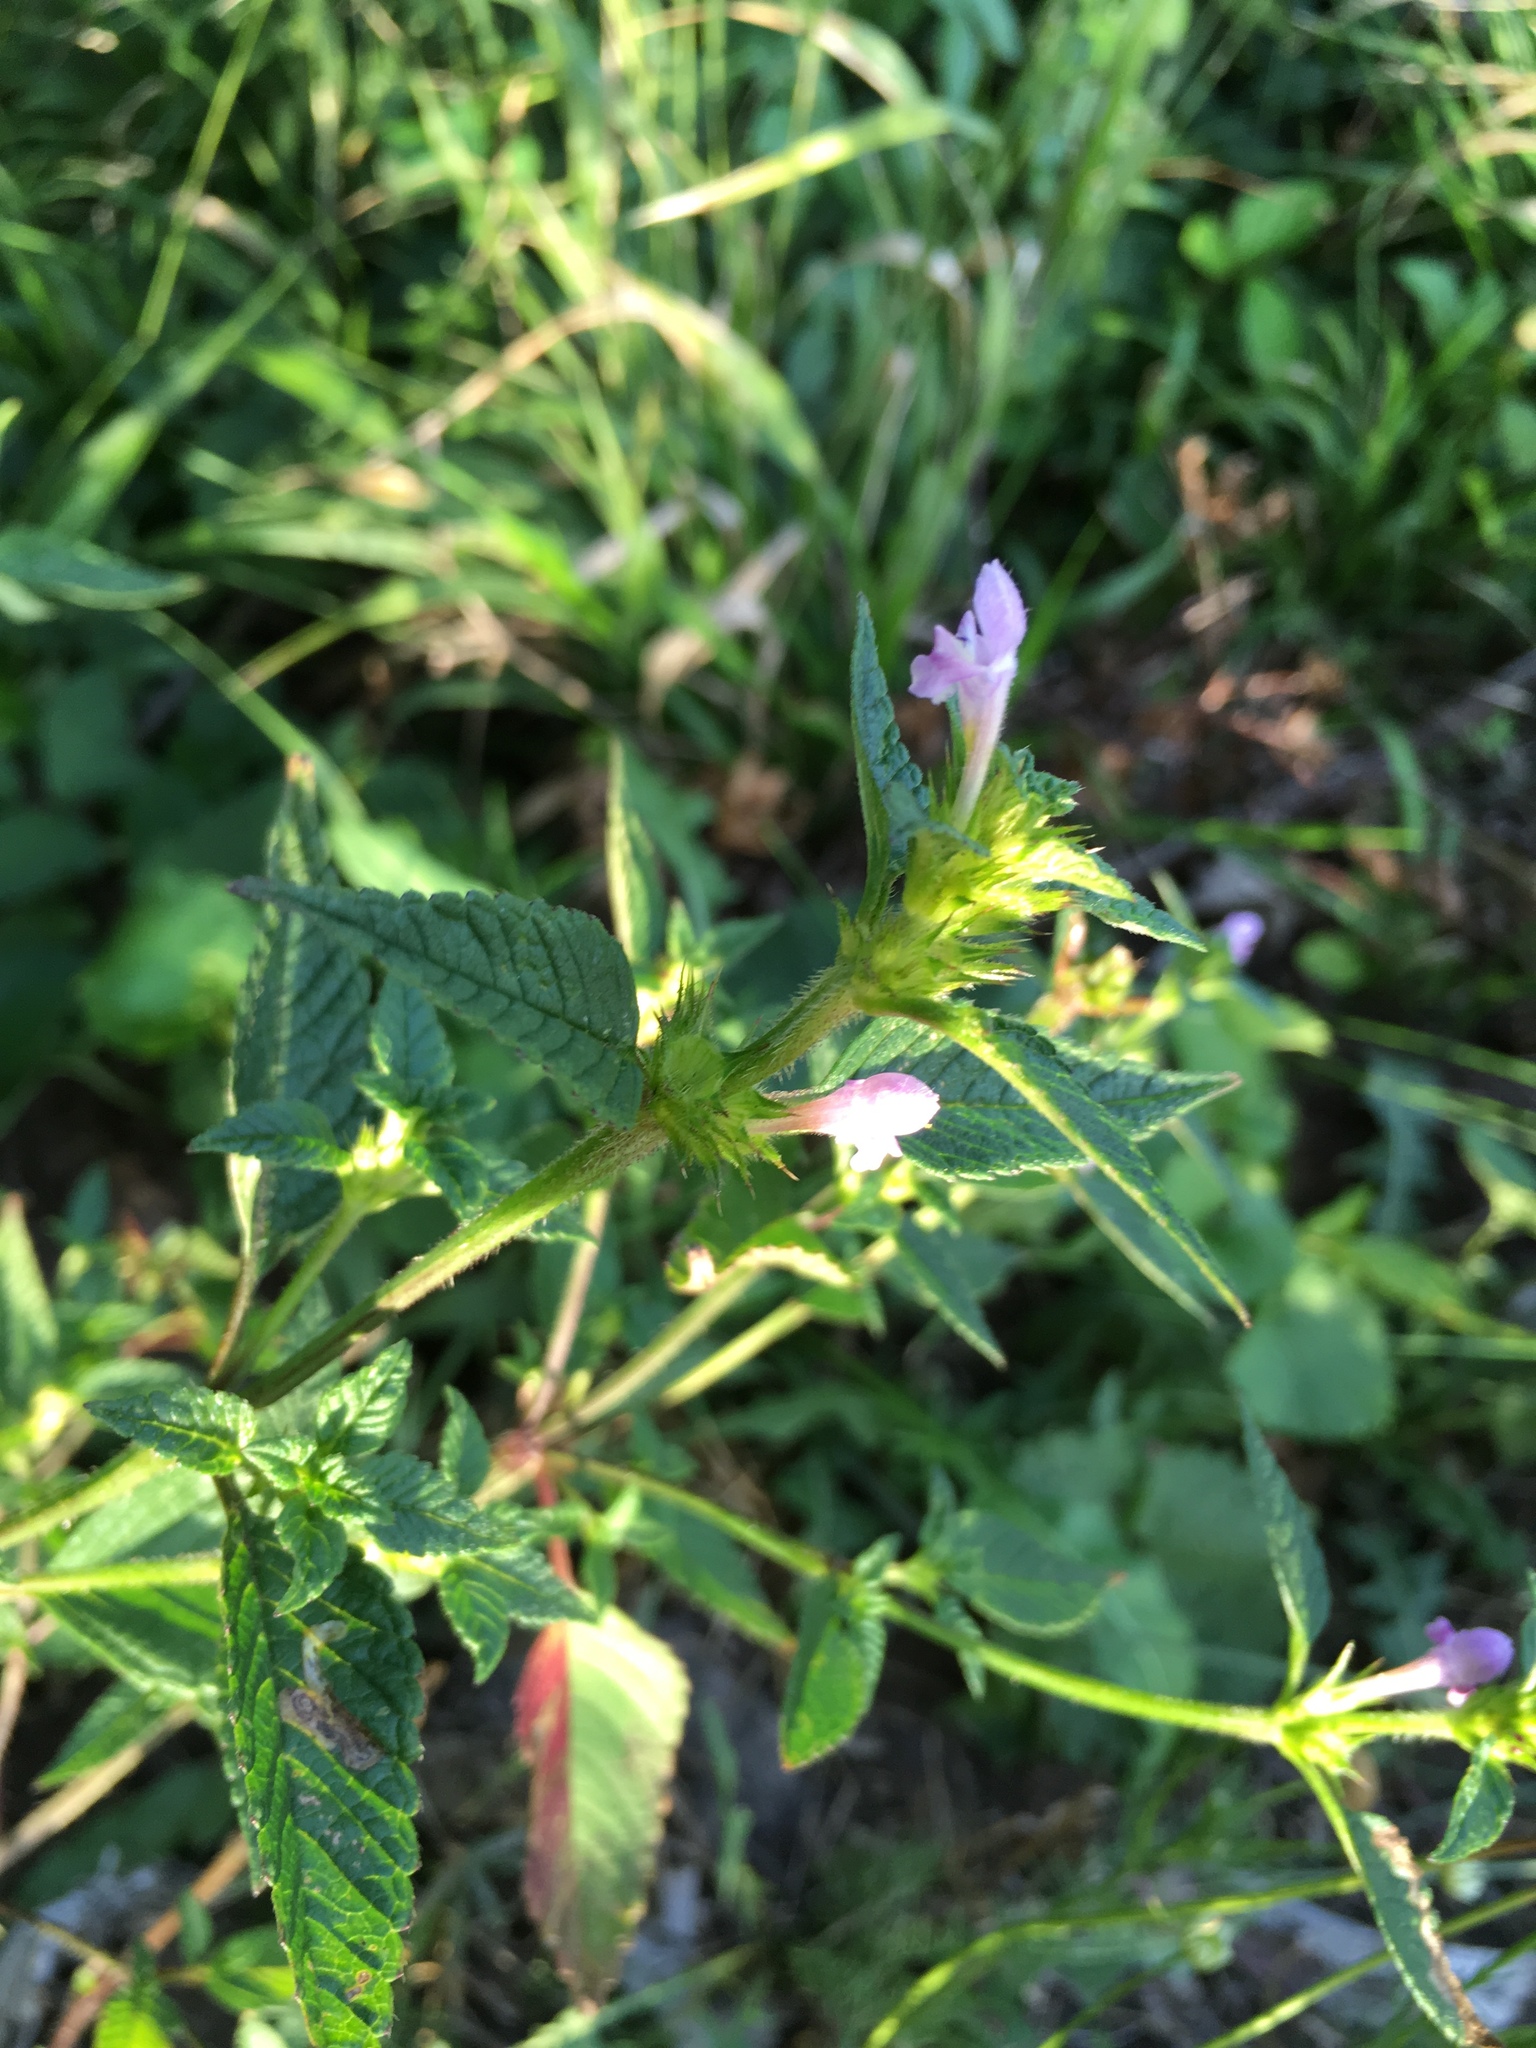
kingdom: Plantae
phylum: Tracheophyta
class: Magnoliopsida
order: Lamiales
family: Lamiaceae
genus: Galeopsis
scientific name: Galeopsis tetrahit
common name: Common hemp-nettle
